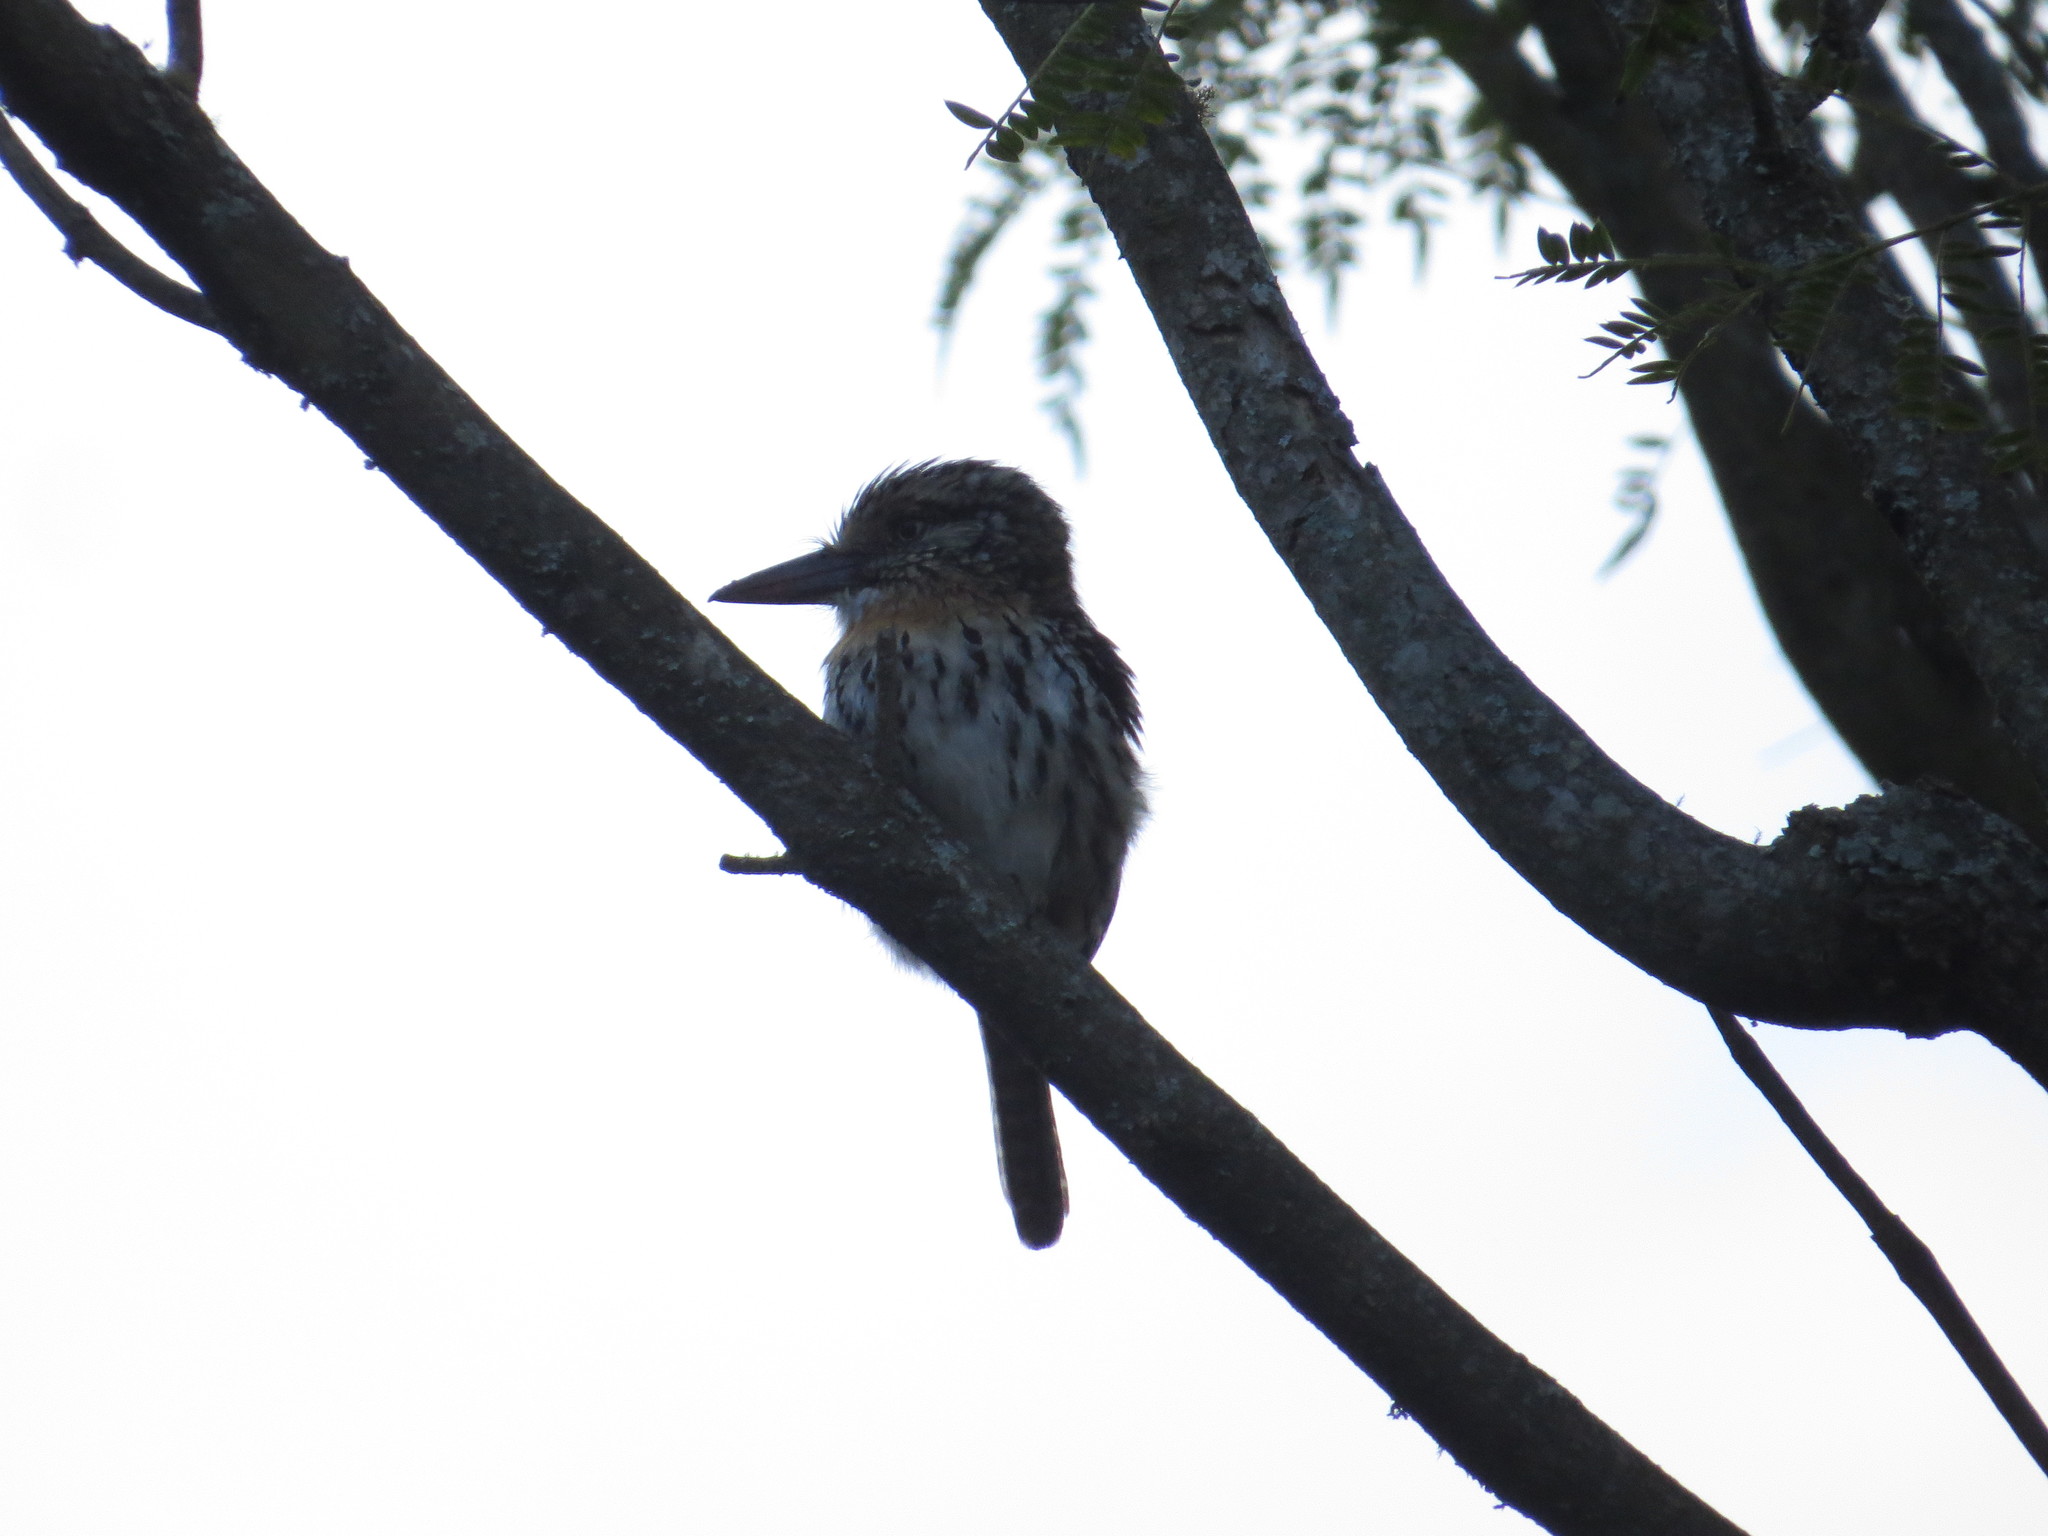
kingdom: Animalia
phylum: Chordata
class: Aves
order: Piciformes
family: Bucconidae
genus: Nystalus
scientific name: Nystalus maculatus
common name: Caatinga puffbird
